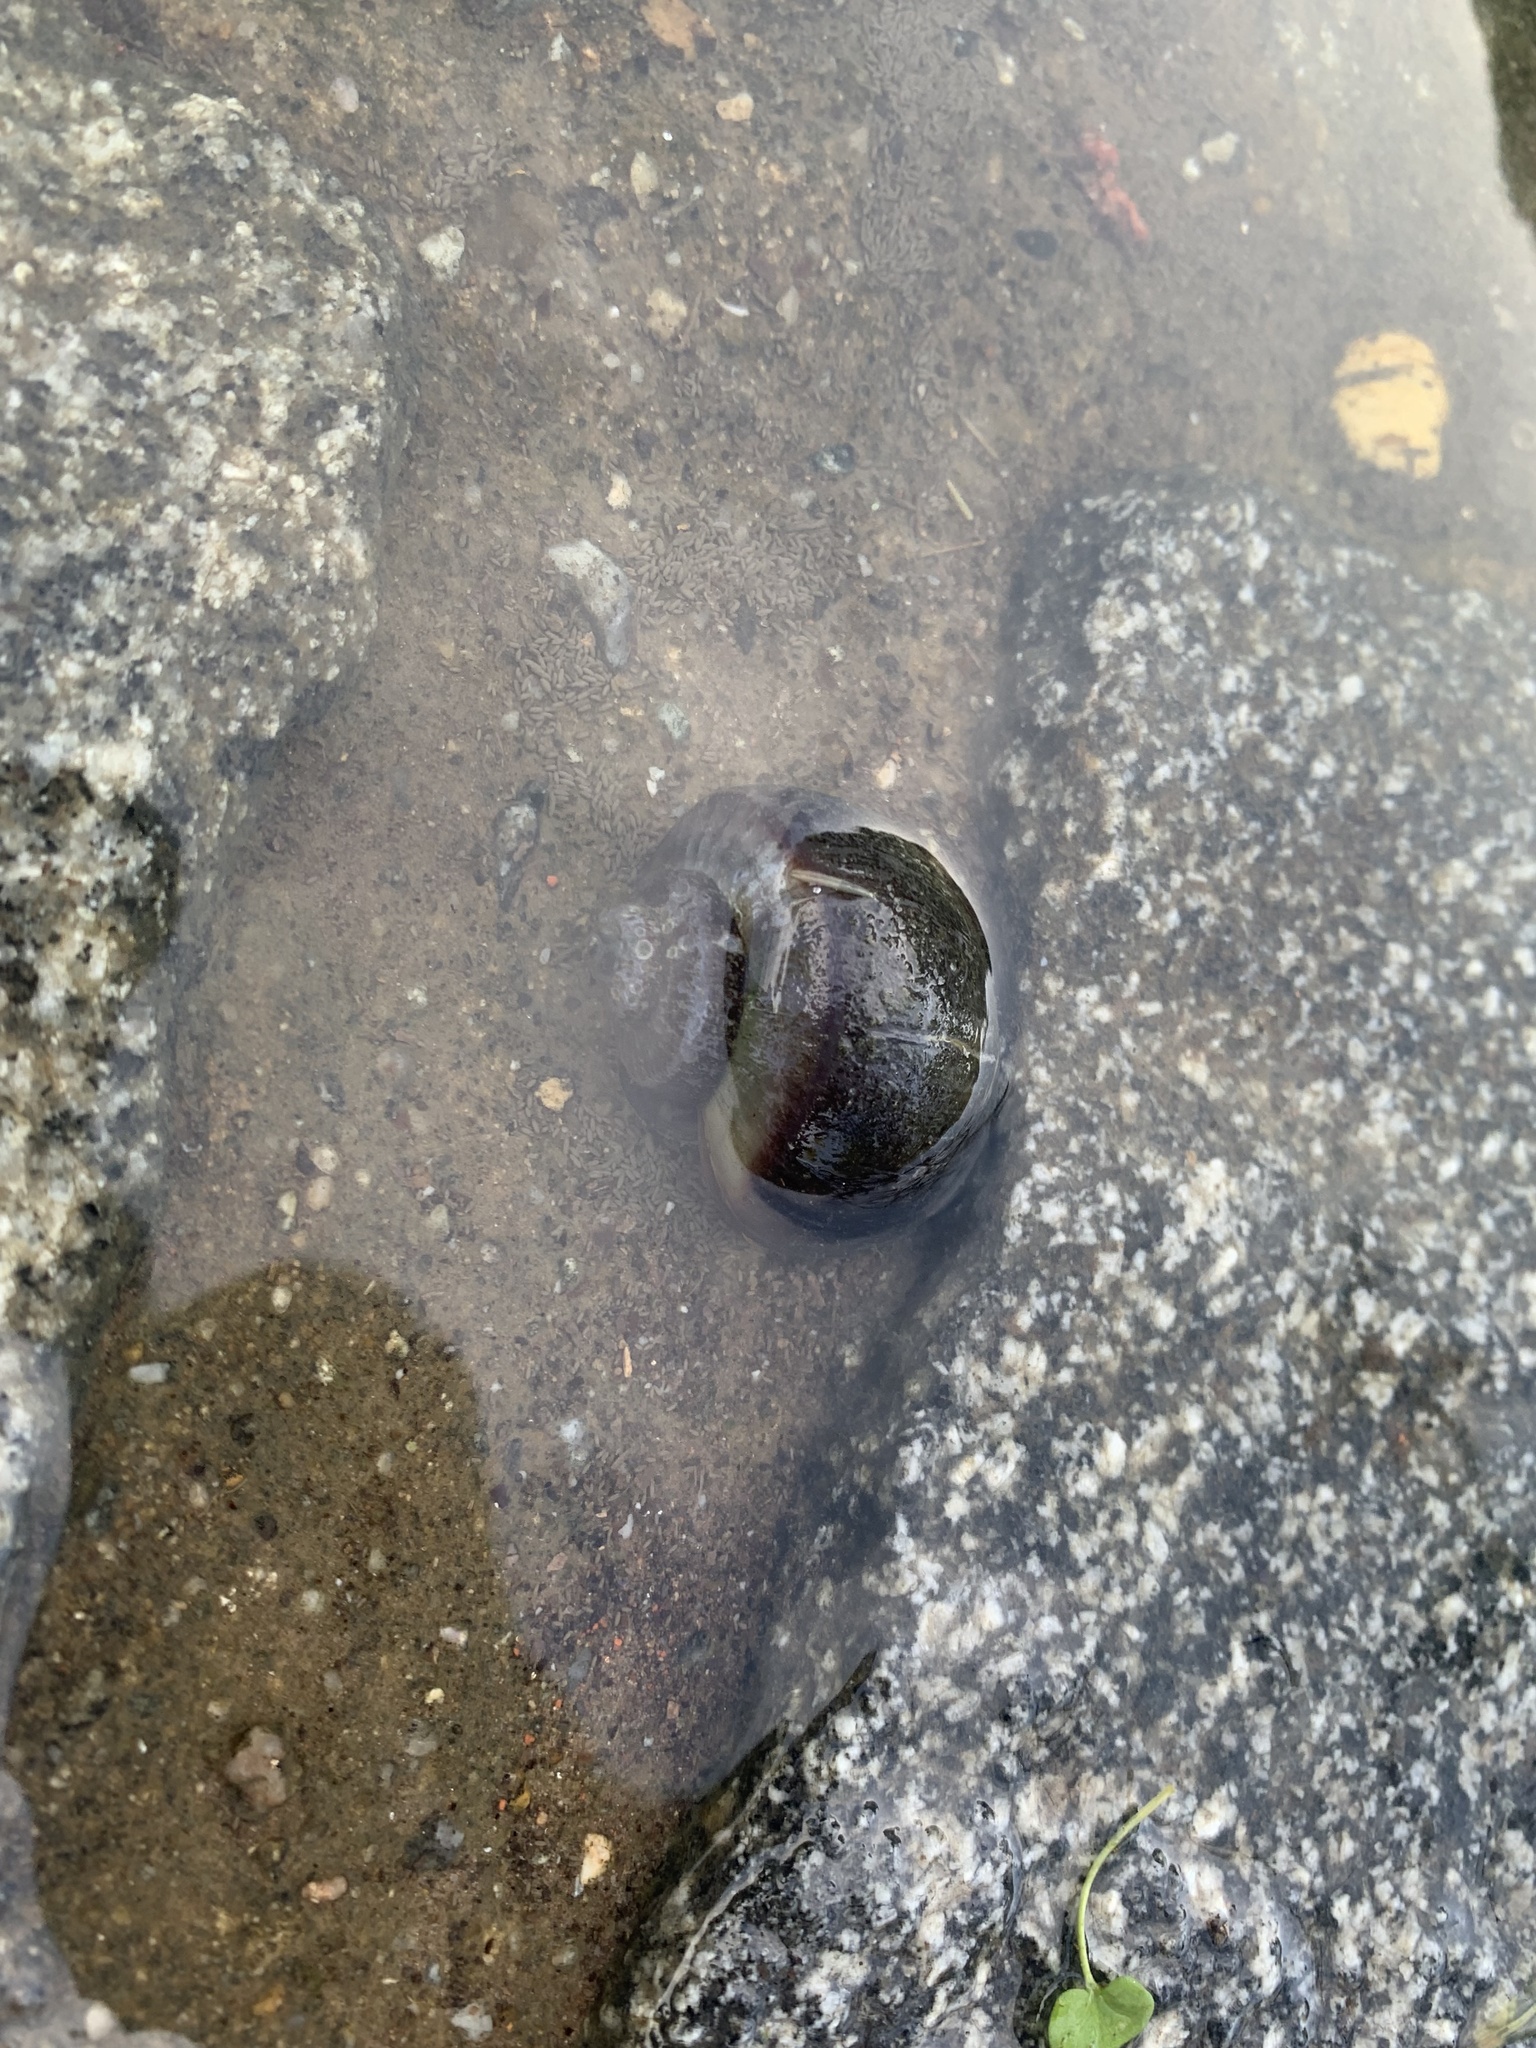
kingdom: Animalia
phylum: Mollusca
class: Gastropoda
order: Architaenioglossa
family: Ampullariidae
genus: Pomacea
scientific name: Pomacea scalaris
